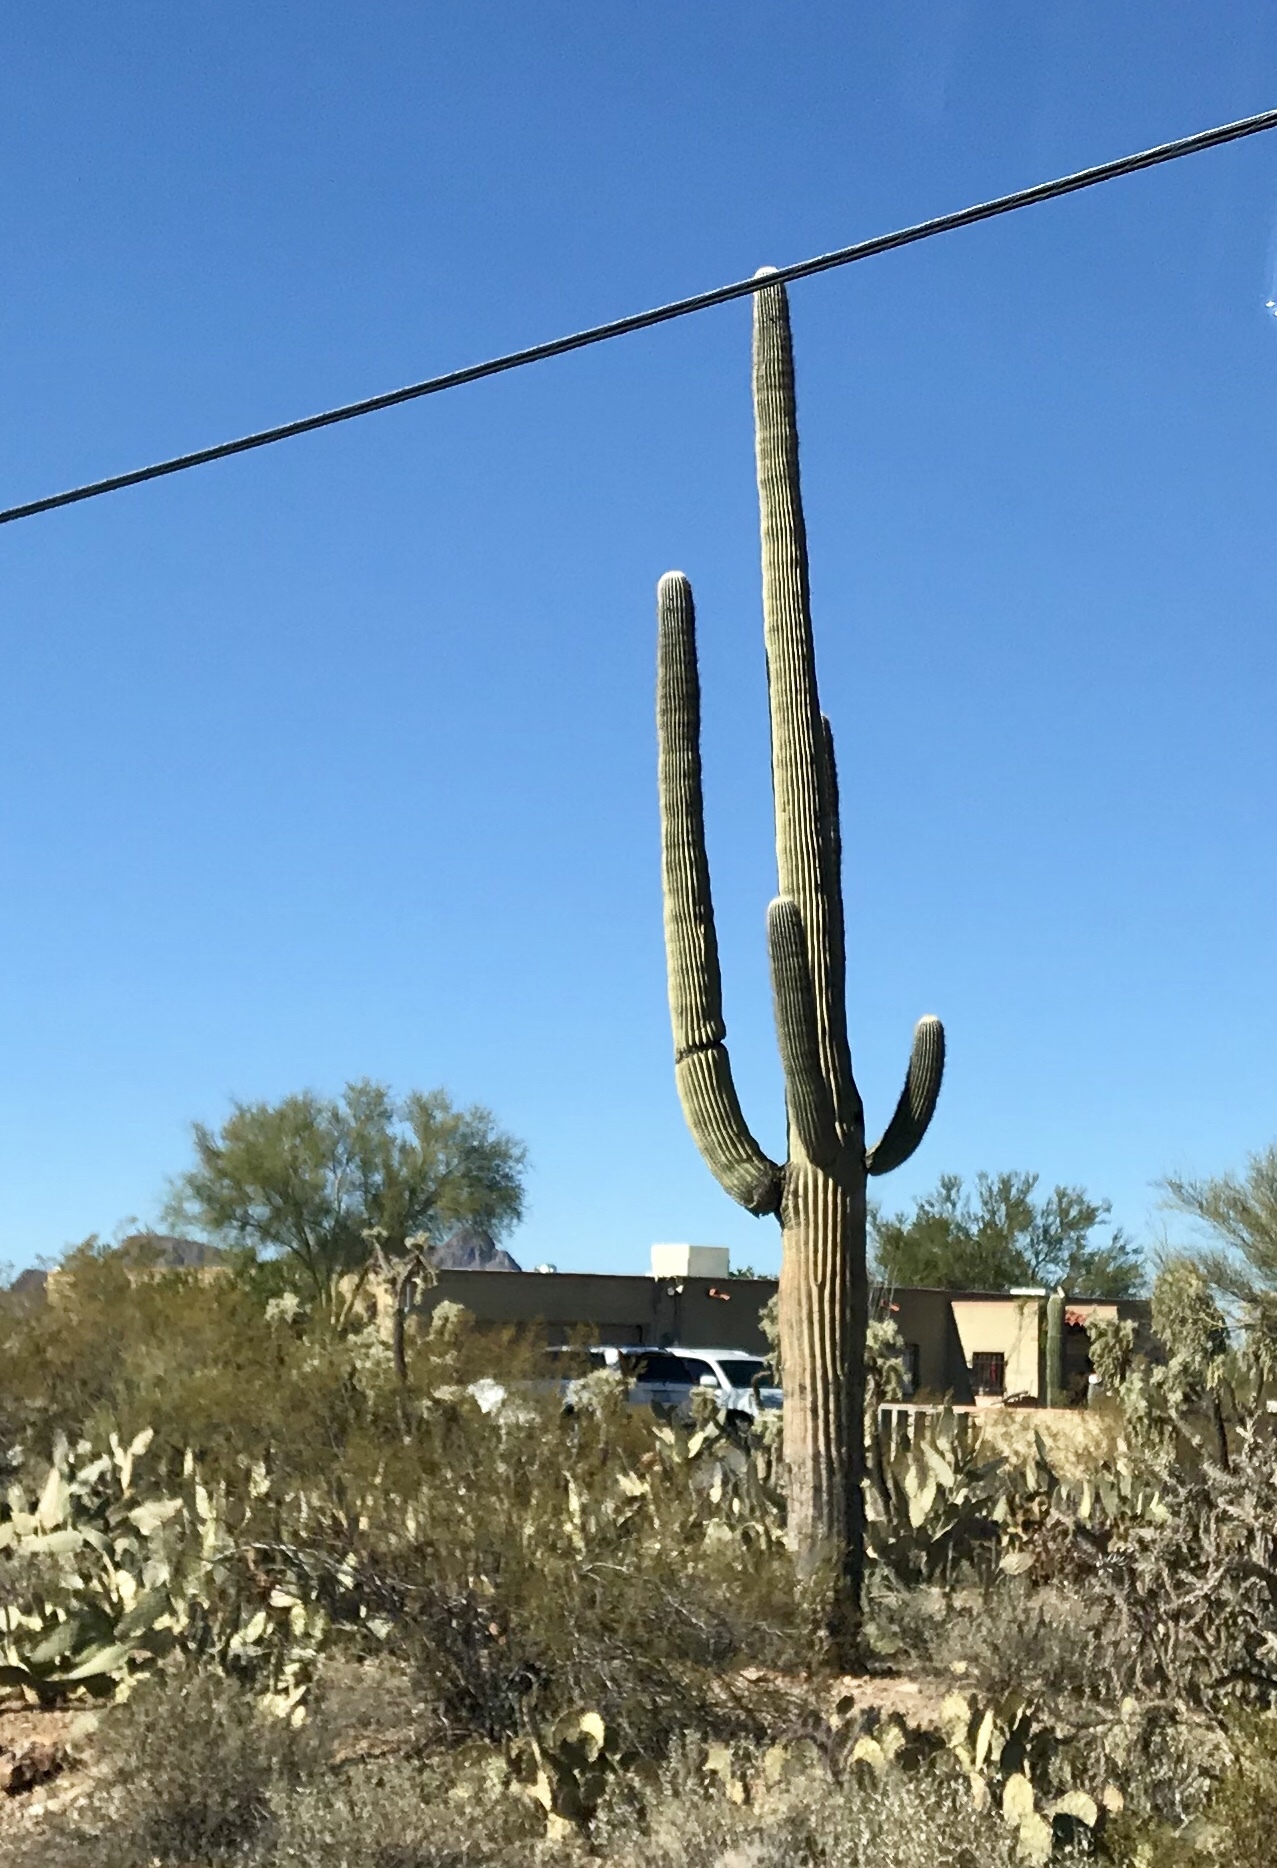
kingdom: Plantae
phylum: Tracheophyta
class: Magnoliopsida
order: Caryophyllales
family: Cactaceae
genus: Carnegiea
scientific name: Carnegiea gigantea
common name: Saguaro
